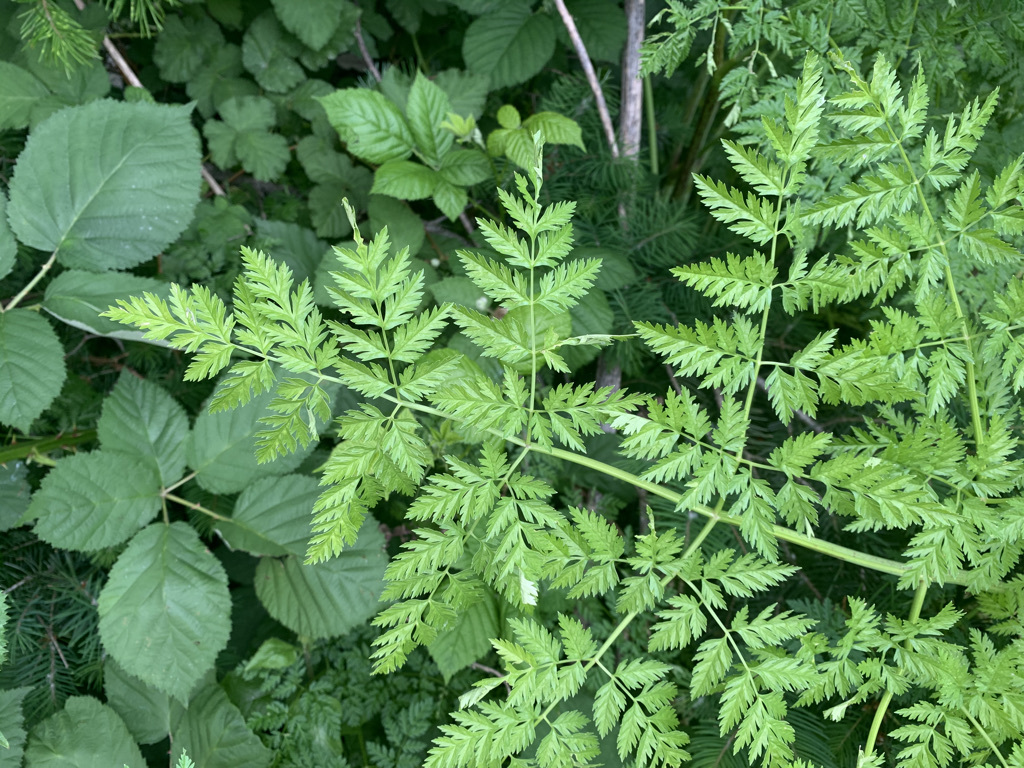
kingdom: Plantae
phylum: Tracheophyta
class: Magnoliopsida
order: Apiales
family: Apiaceae
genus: Conium
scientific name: Conium maculatum
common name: Hemlock
